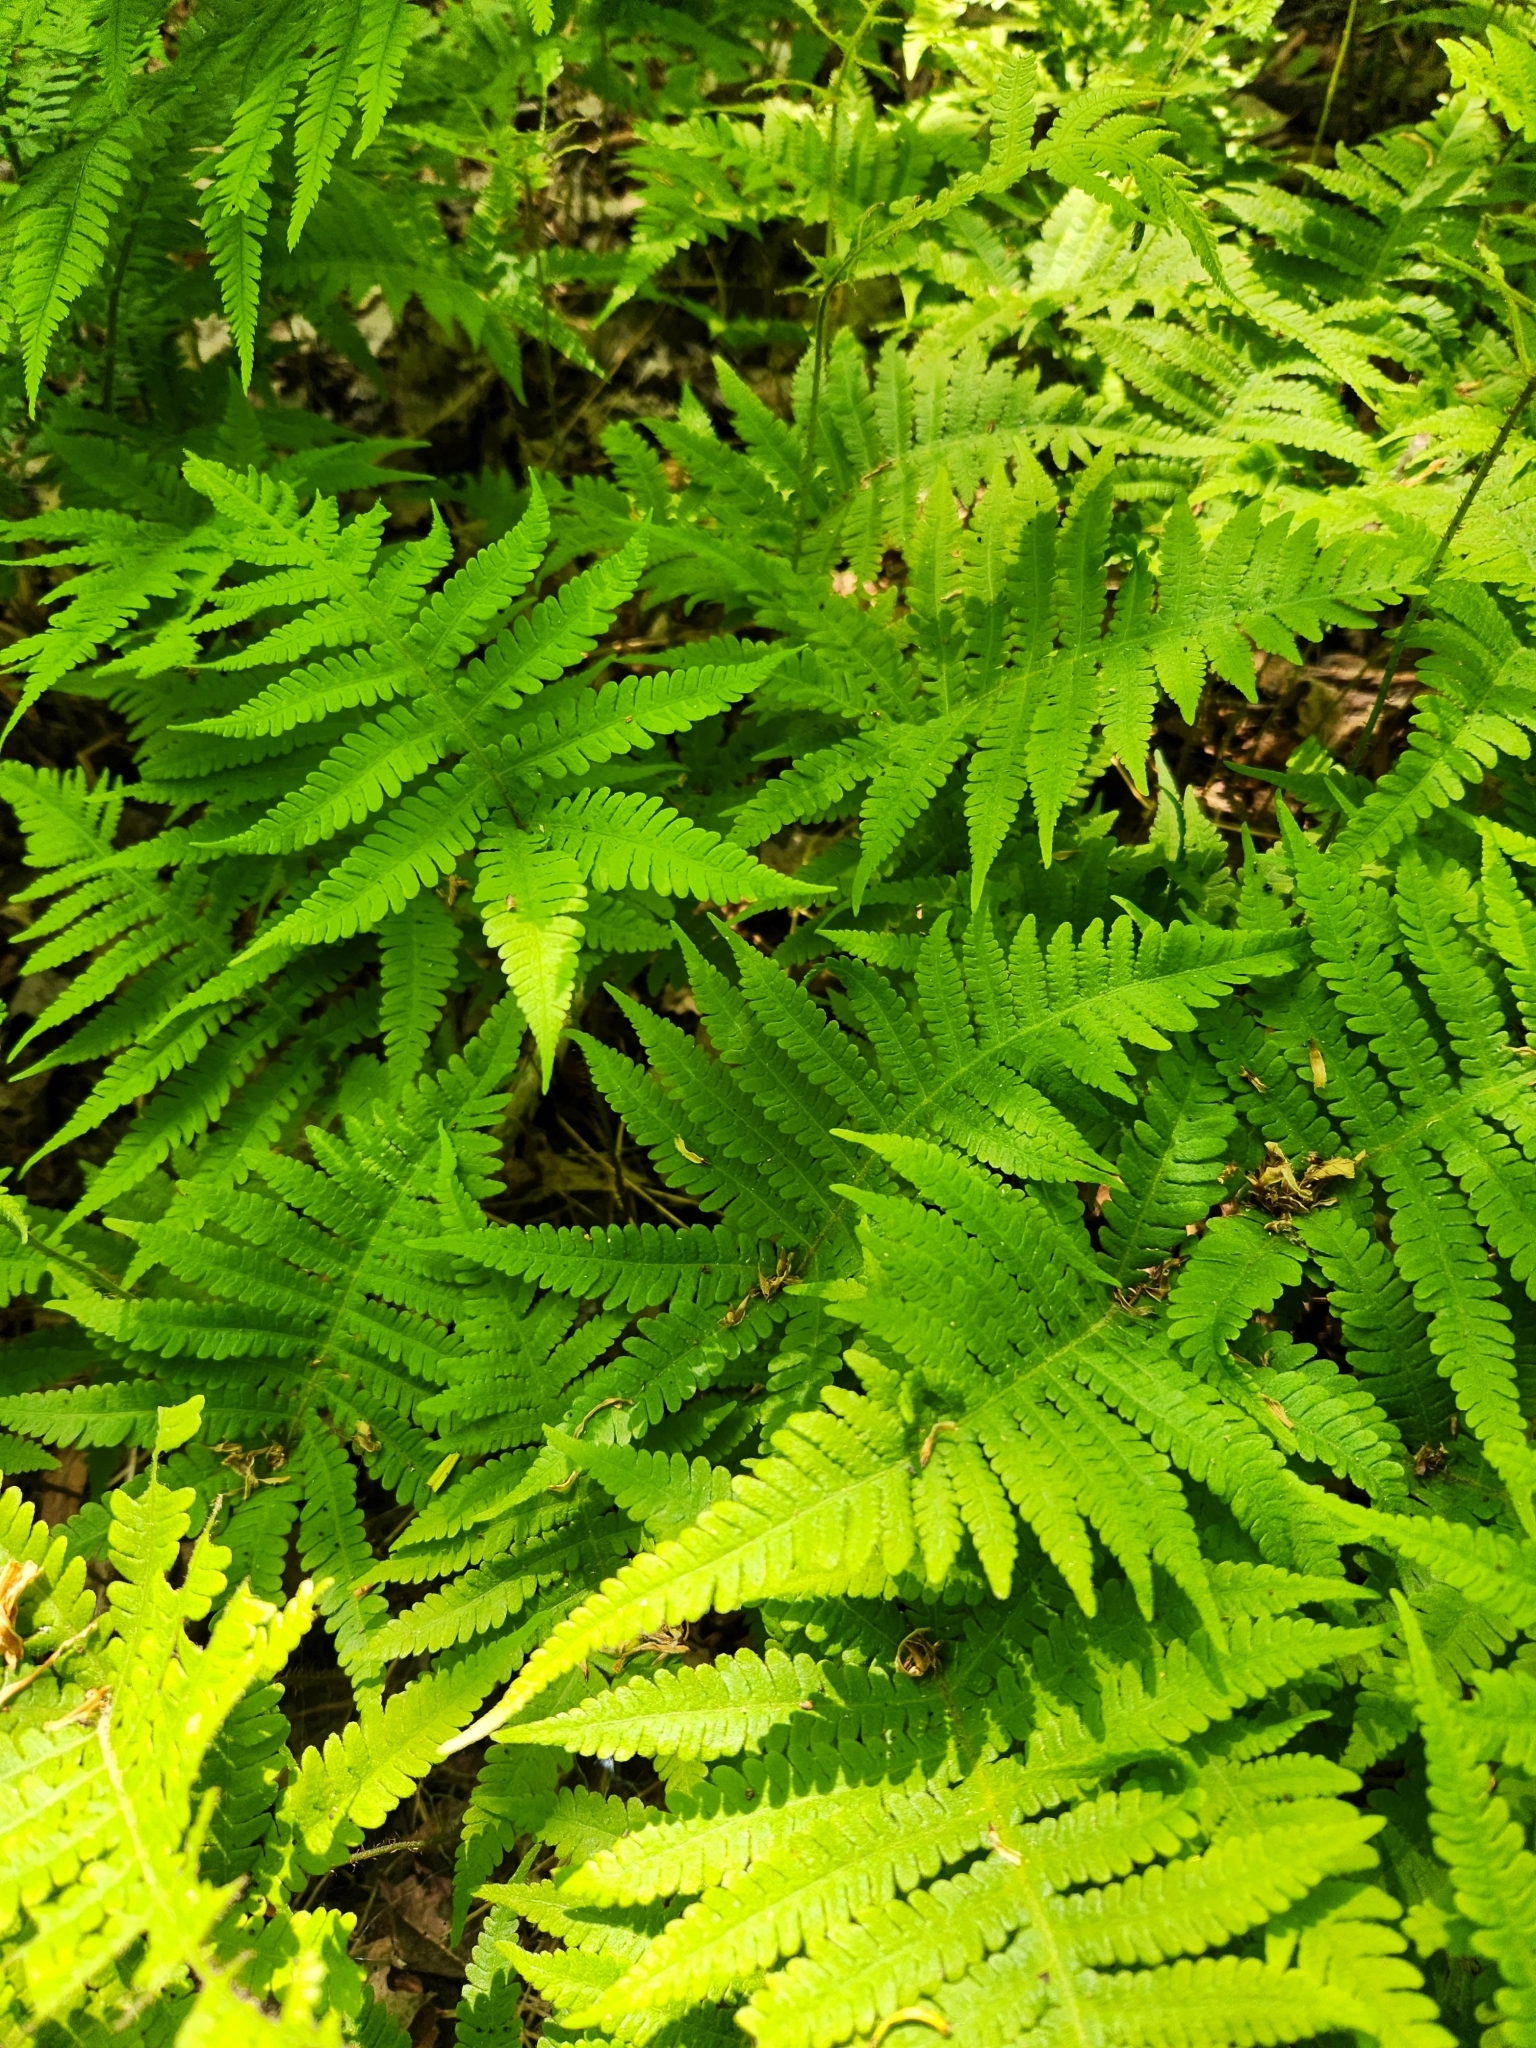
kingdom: Plantae
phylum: Tracheophyta
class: Polypodiopsida
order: Polypodiales
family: Thelypteridaceae
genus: Phegopteris
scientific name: Phegopteris connectilis
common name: Beech fern
